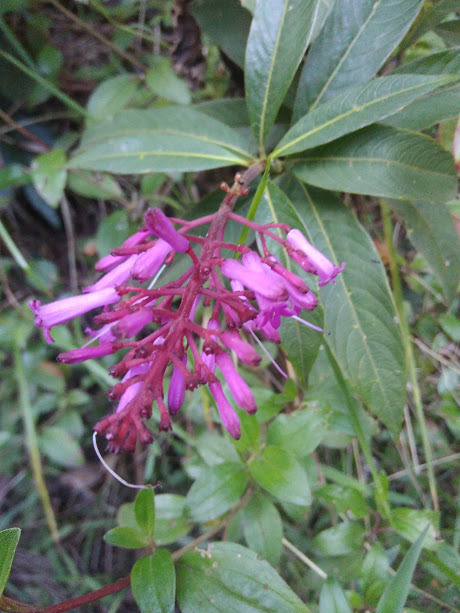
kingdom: Plantae
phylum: Tracheophyta
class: Magnoliopsida
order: Gentianales
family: Rubiaceae
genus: Palicourea
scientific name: Palicourea angustifolia
